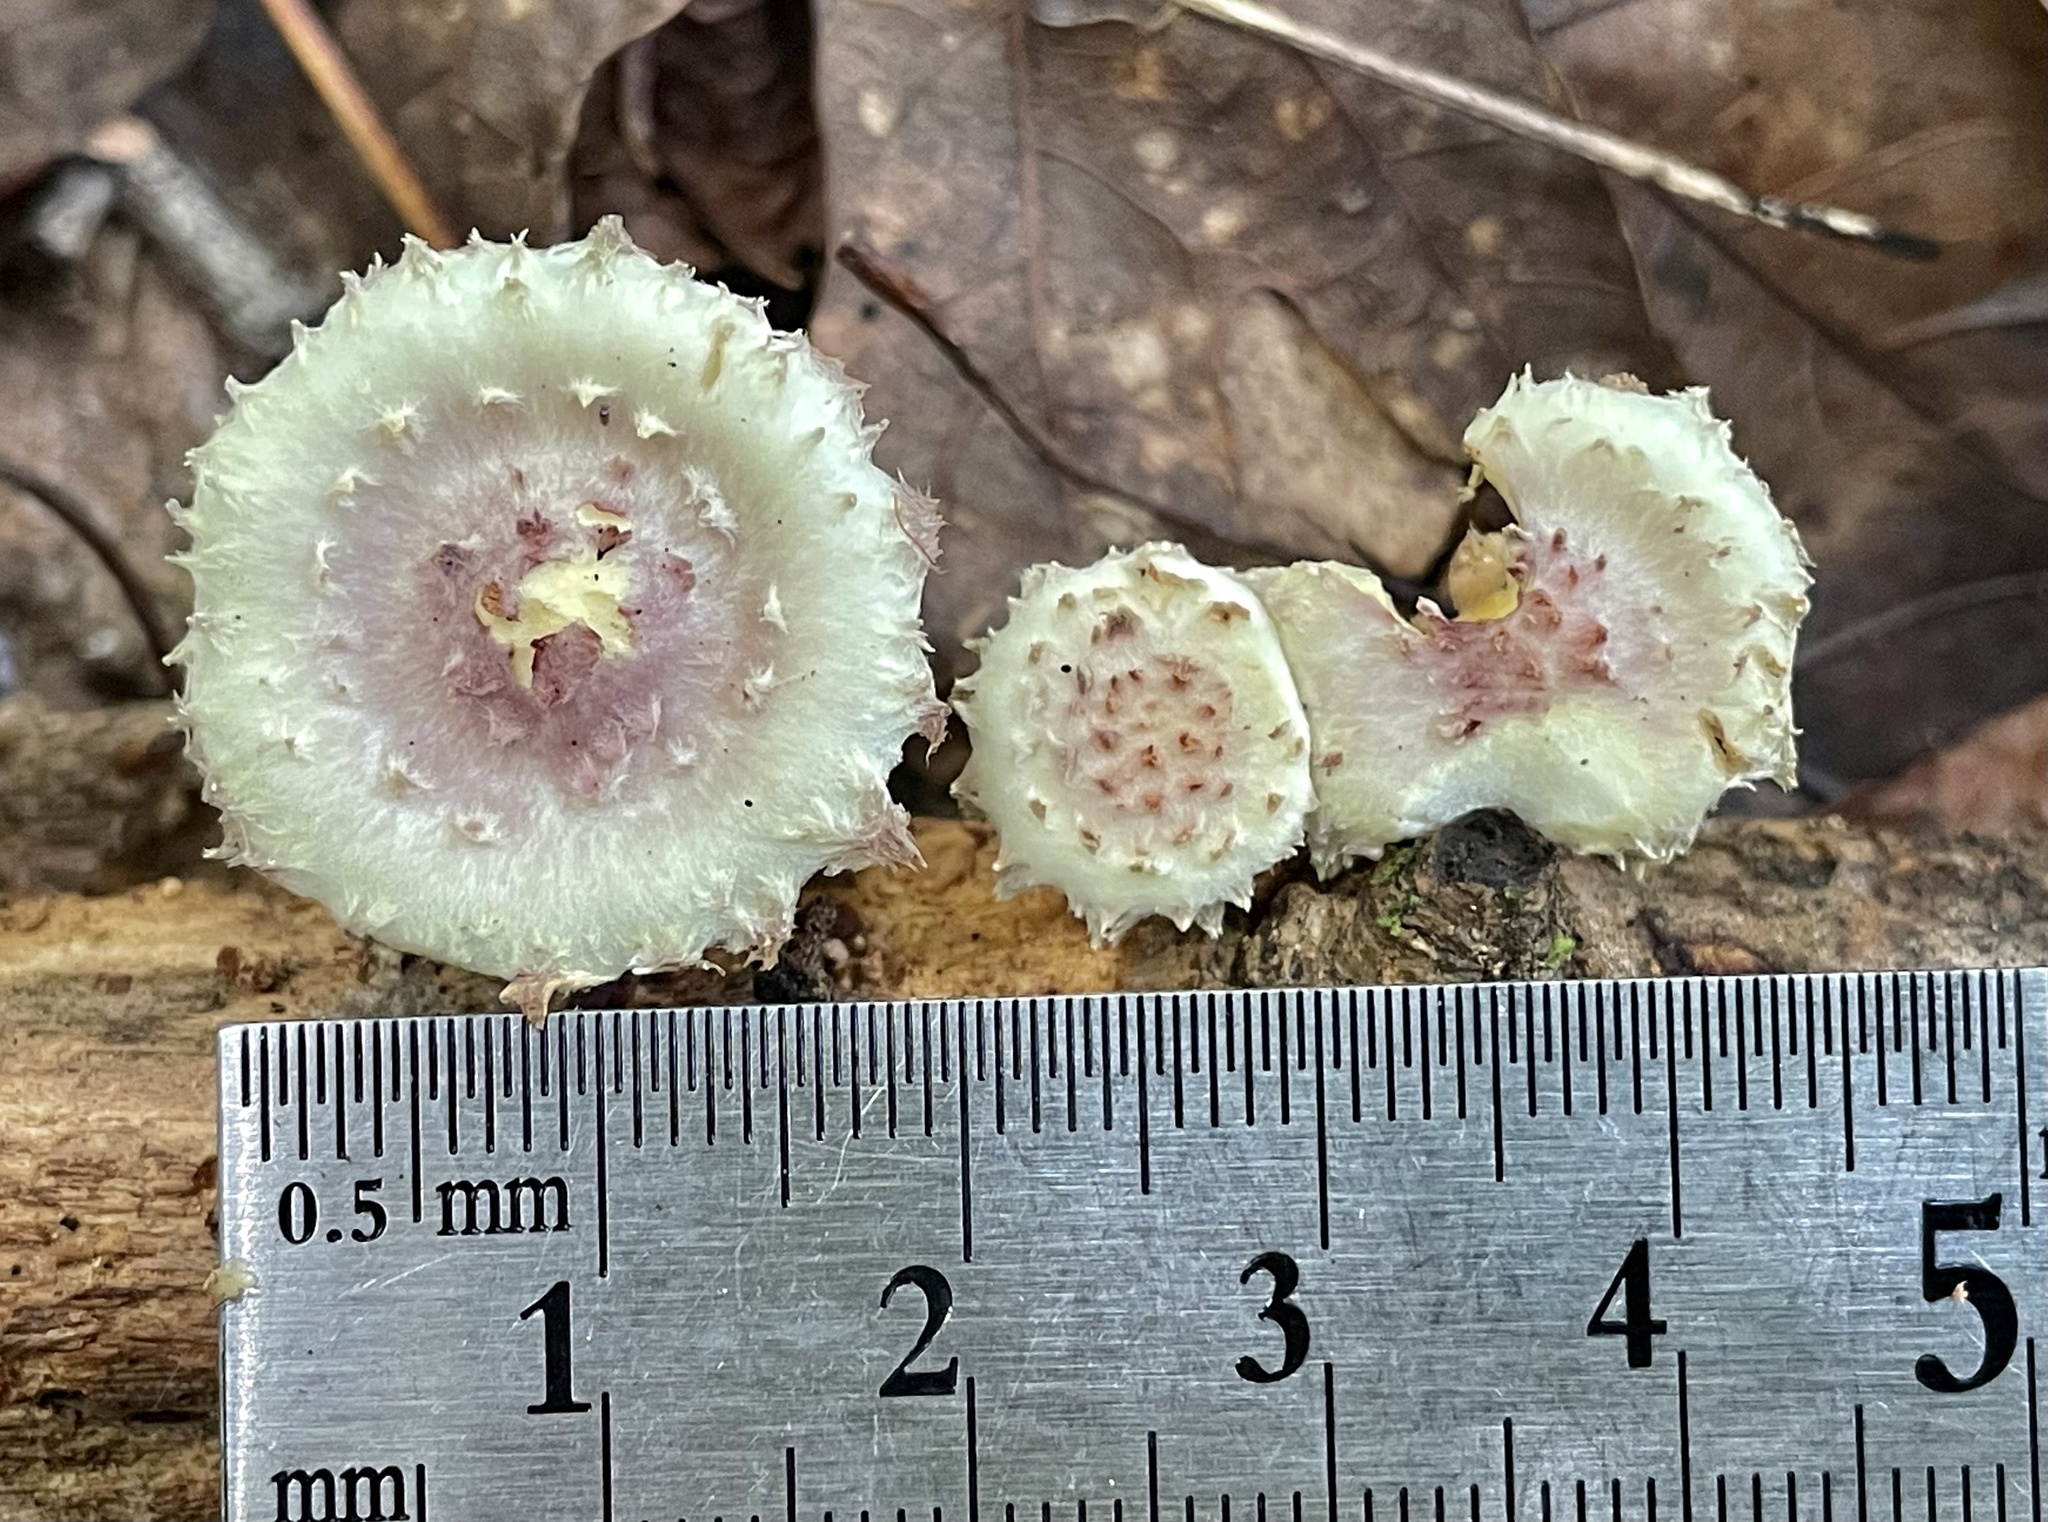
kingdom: Fungi
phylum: Basidiomycota
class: Agaricomycetes
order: Agaricales
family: Strophariaceae
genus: Pholiota
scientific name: Pholiota polychroa
